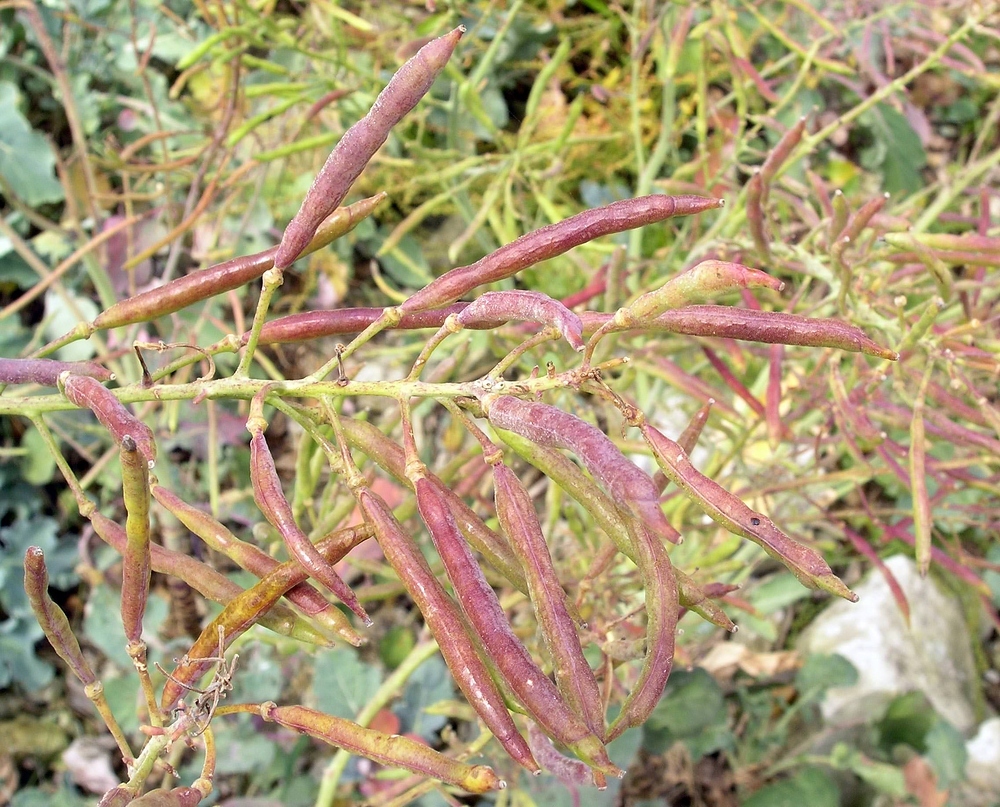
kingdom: Plantae
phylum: Tracheophyta
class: Magnoliopsida
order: Brassicales
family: Brassicaceae
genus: Brassica
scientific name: Brassica oleracea
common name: Cabbage
